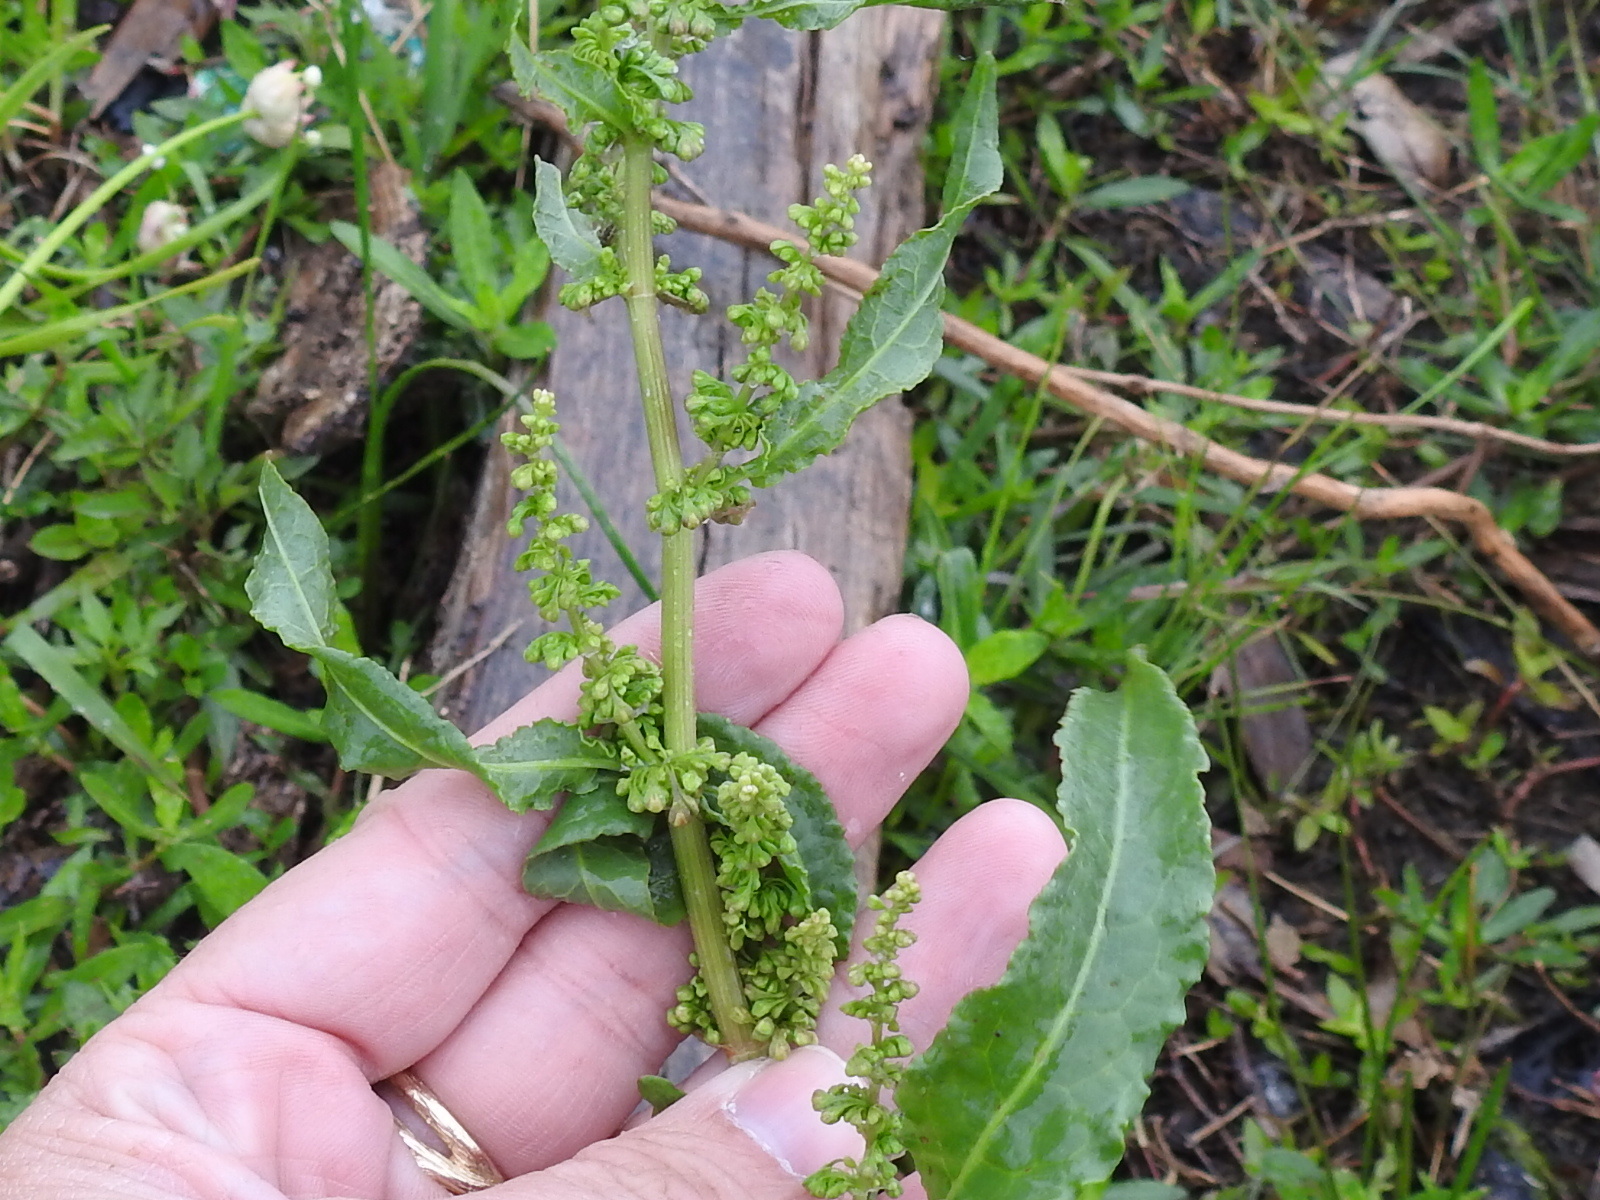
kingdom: Plantae
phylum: Tracheophyta
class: Magnoliopsida
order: Caryophyllales
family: Polygonaceae
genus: Rumex
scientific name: Rumex altissimus
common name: Smooth dock
